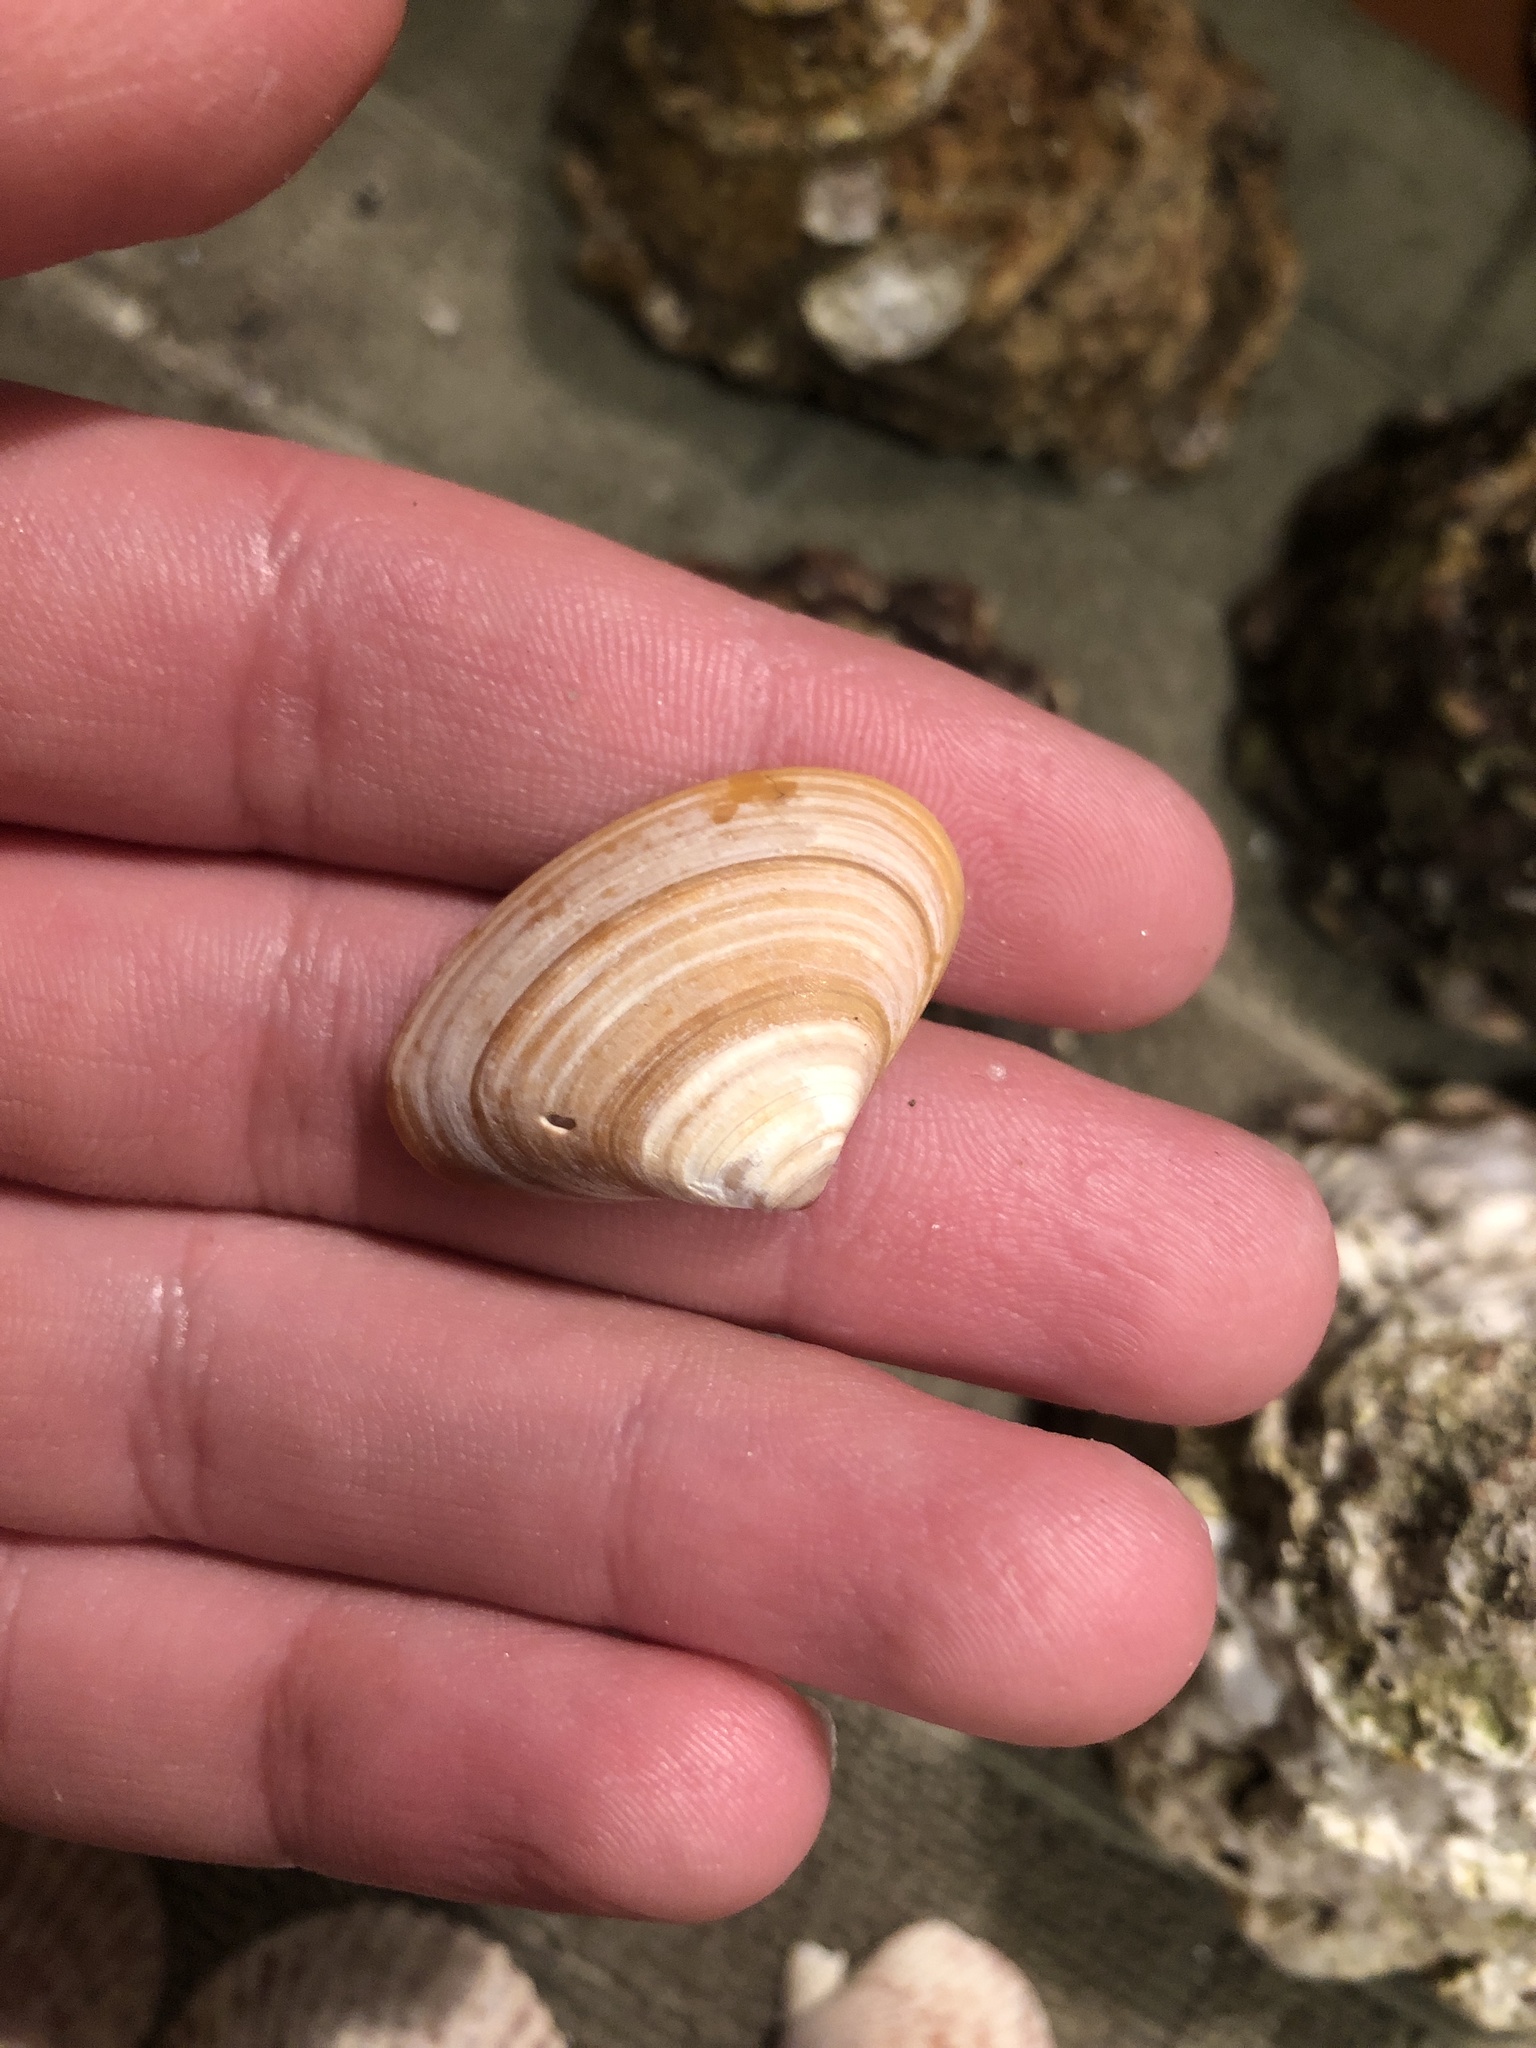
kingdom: Animalia
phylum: Mollusca
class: Bivalvia
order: Venerida
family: Veneridae
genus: Tivela
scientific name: Tivela stultorum
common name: Pismo clam
